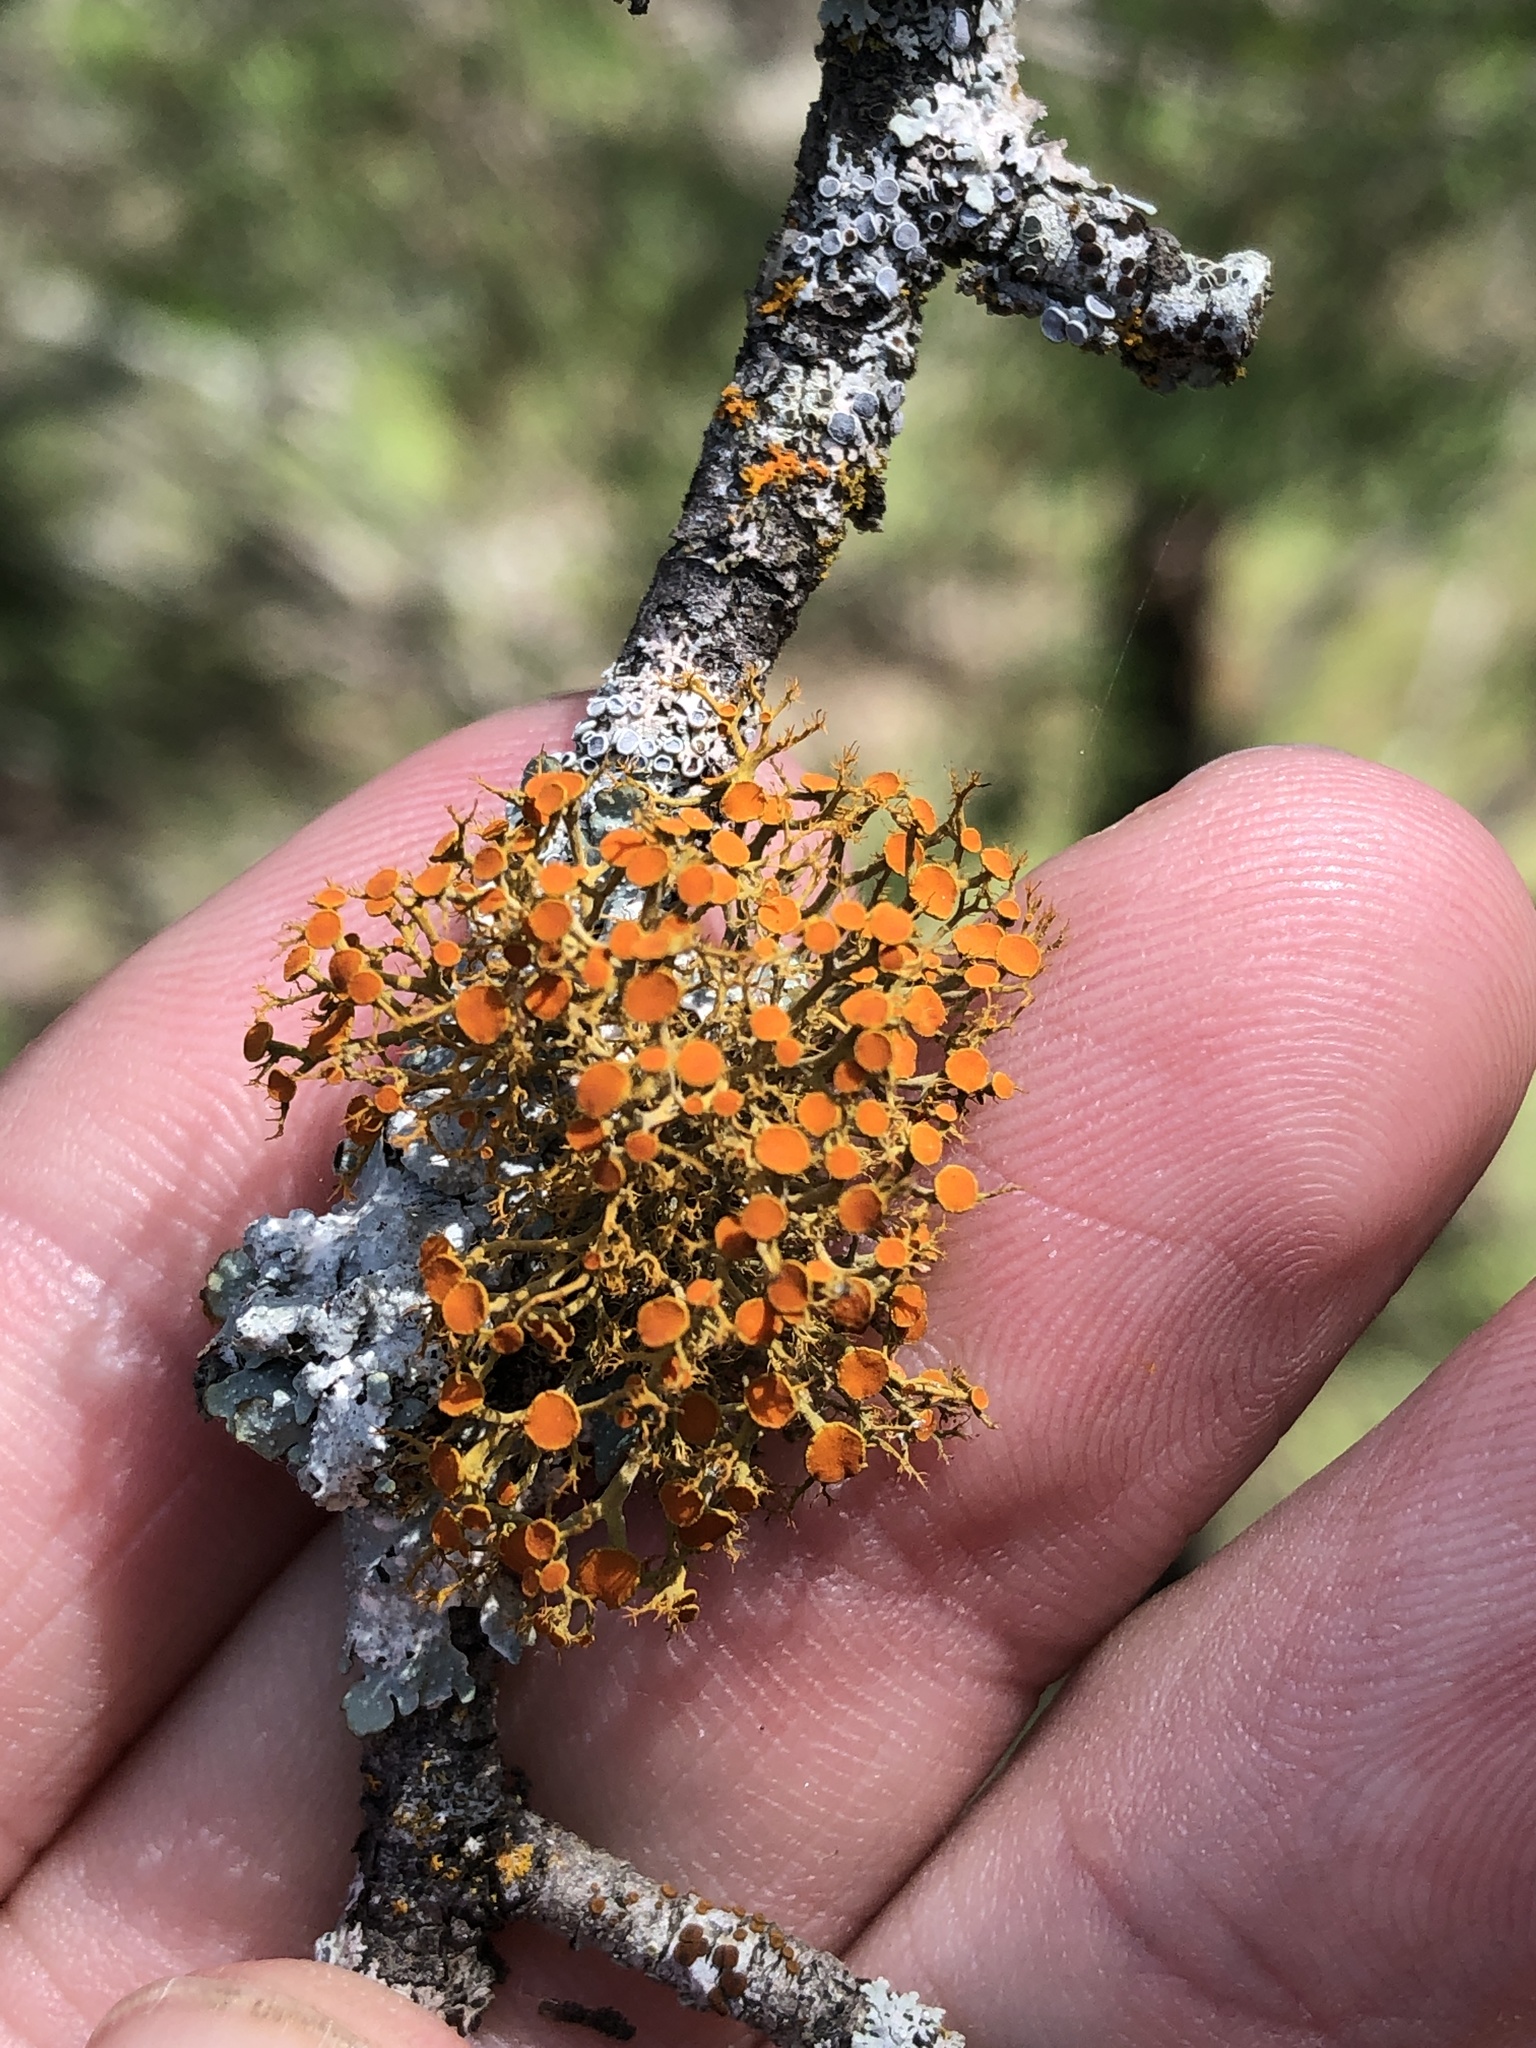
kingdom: Fungi
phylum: Ascomycota
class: Lecanoromycetes
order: Teloschistales
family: Teloschistaceae
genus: Teloschistes
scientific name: Teloschistes exilis
